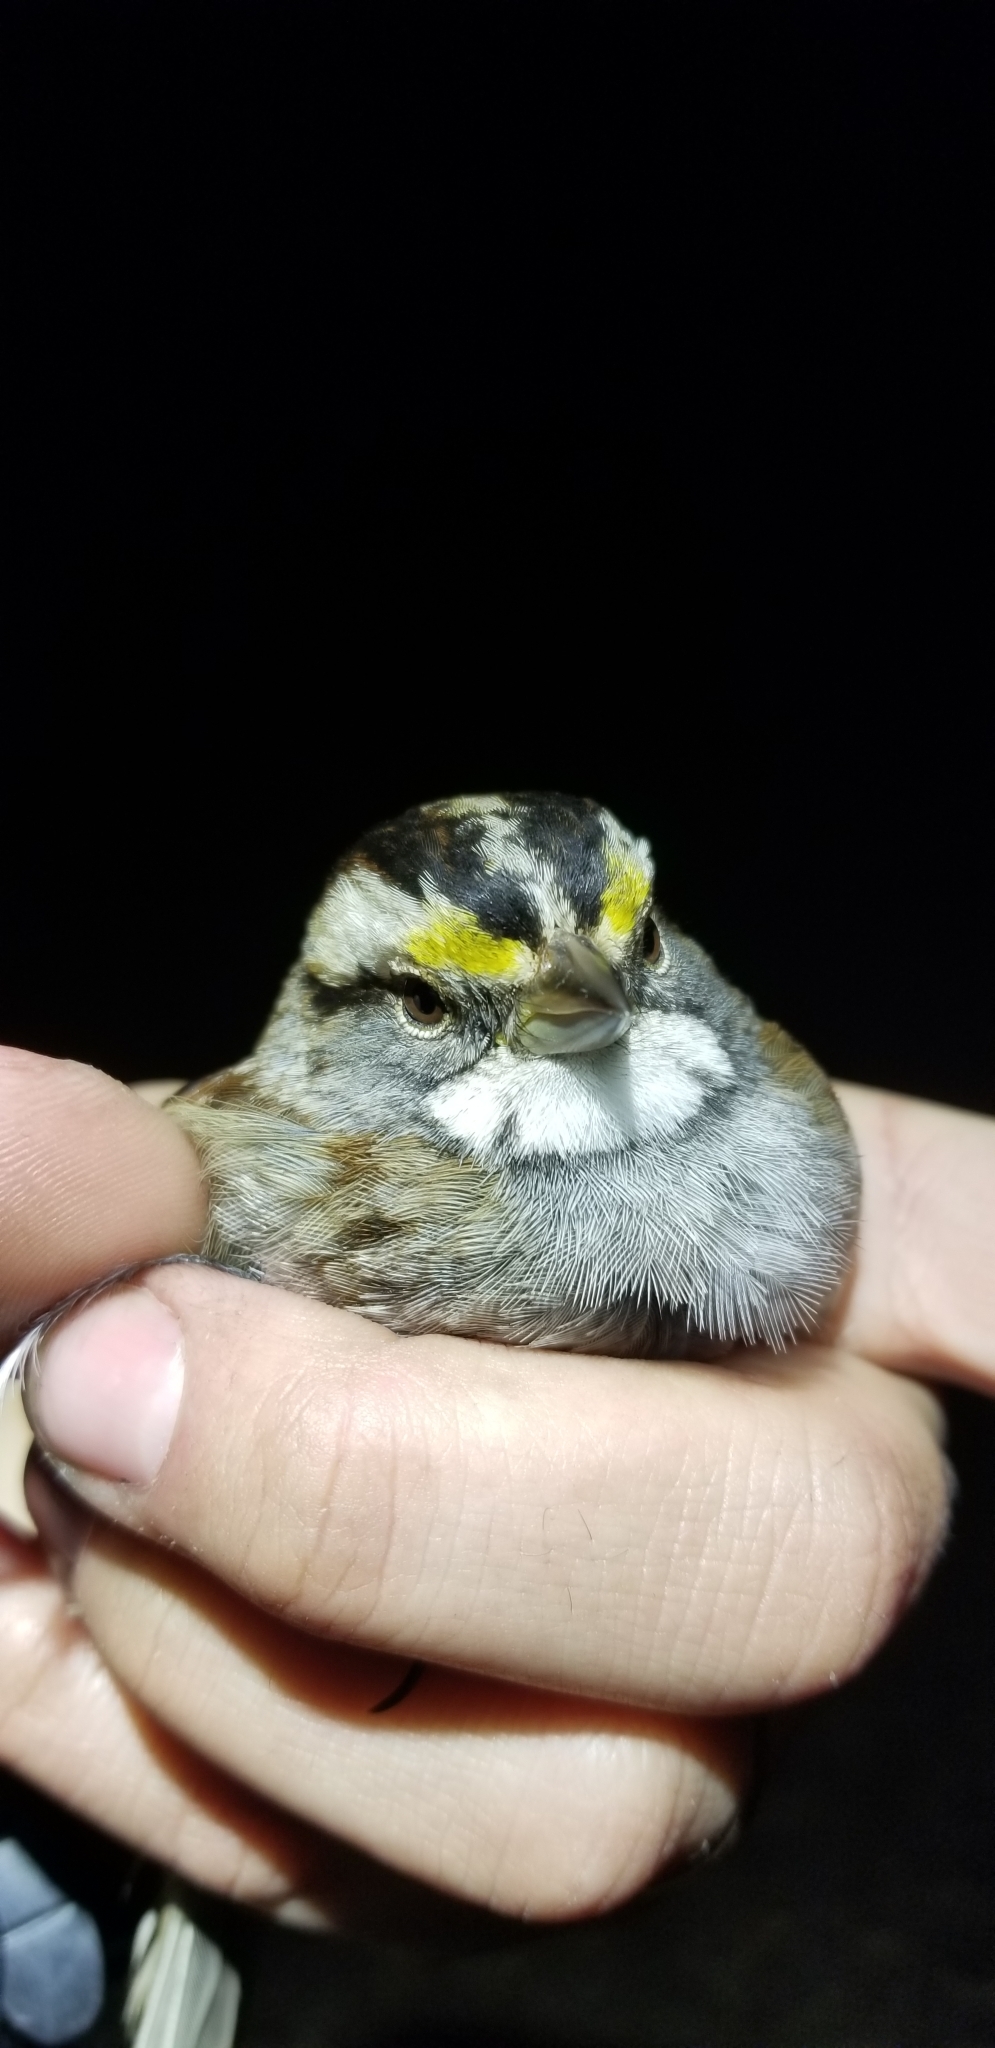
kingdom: Animalia
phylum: Chordata
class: Aves
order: Passeriformes
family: Passerellidae
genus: Zonotrichia
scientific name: Zonotrichia albicollis
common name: White-throated sparrow
